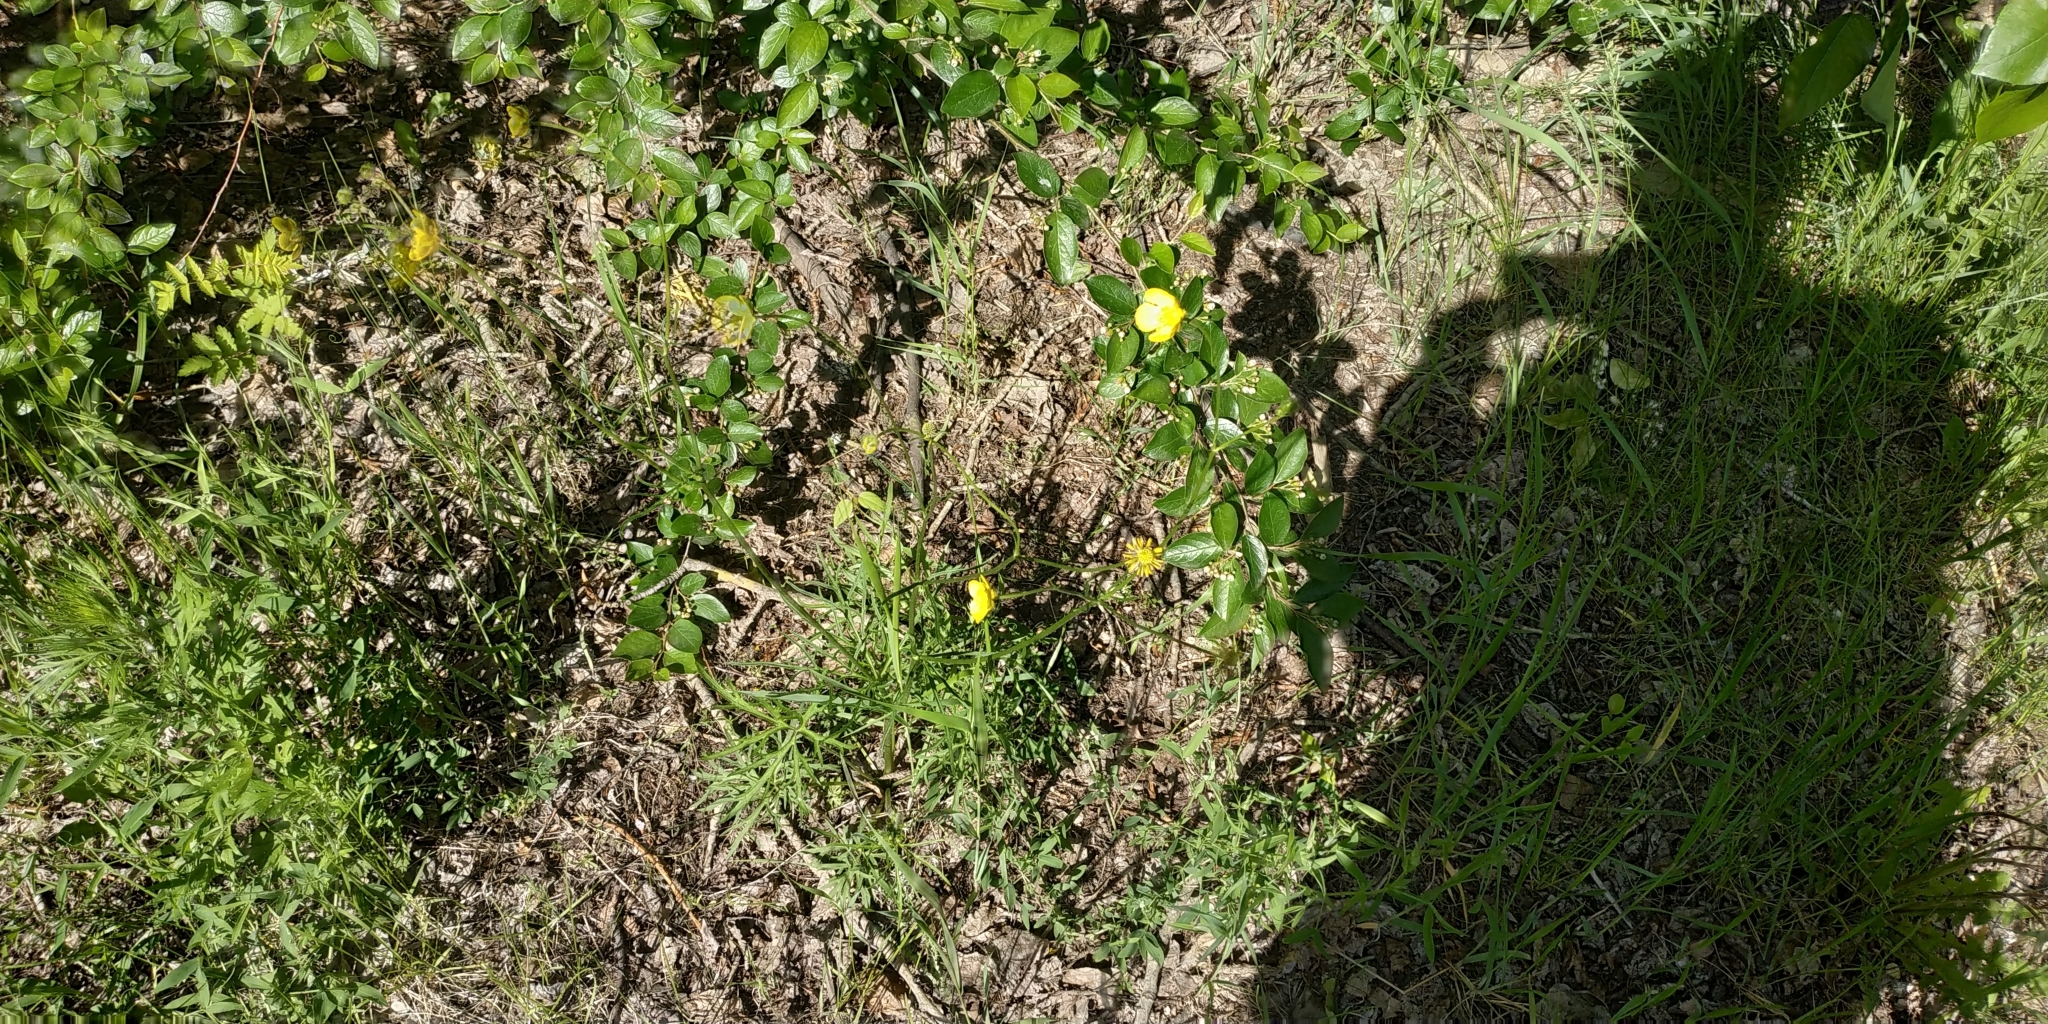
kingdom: Plantae
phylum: Tracheophyta
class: Magnoliopsida
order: Ranunculales
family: Ranunculaceae
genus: Ranunculus
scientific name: Ranunculus polyanthemos
